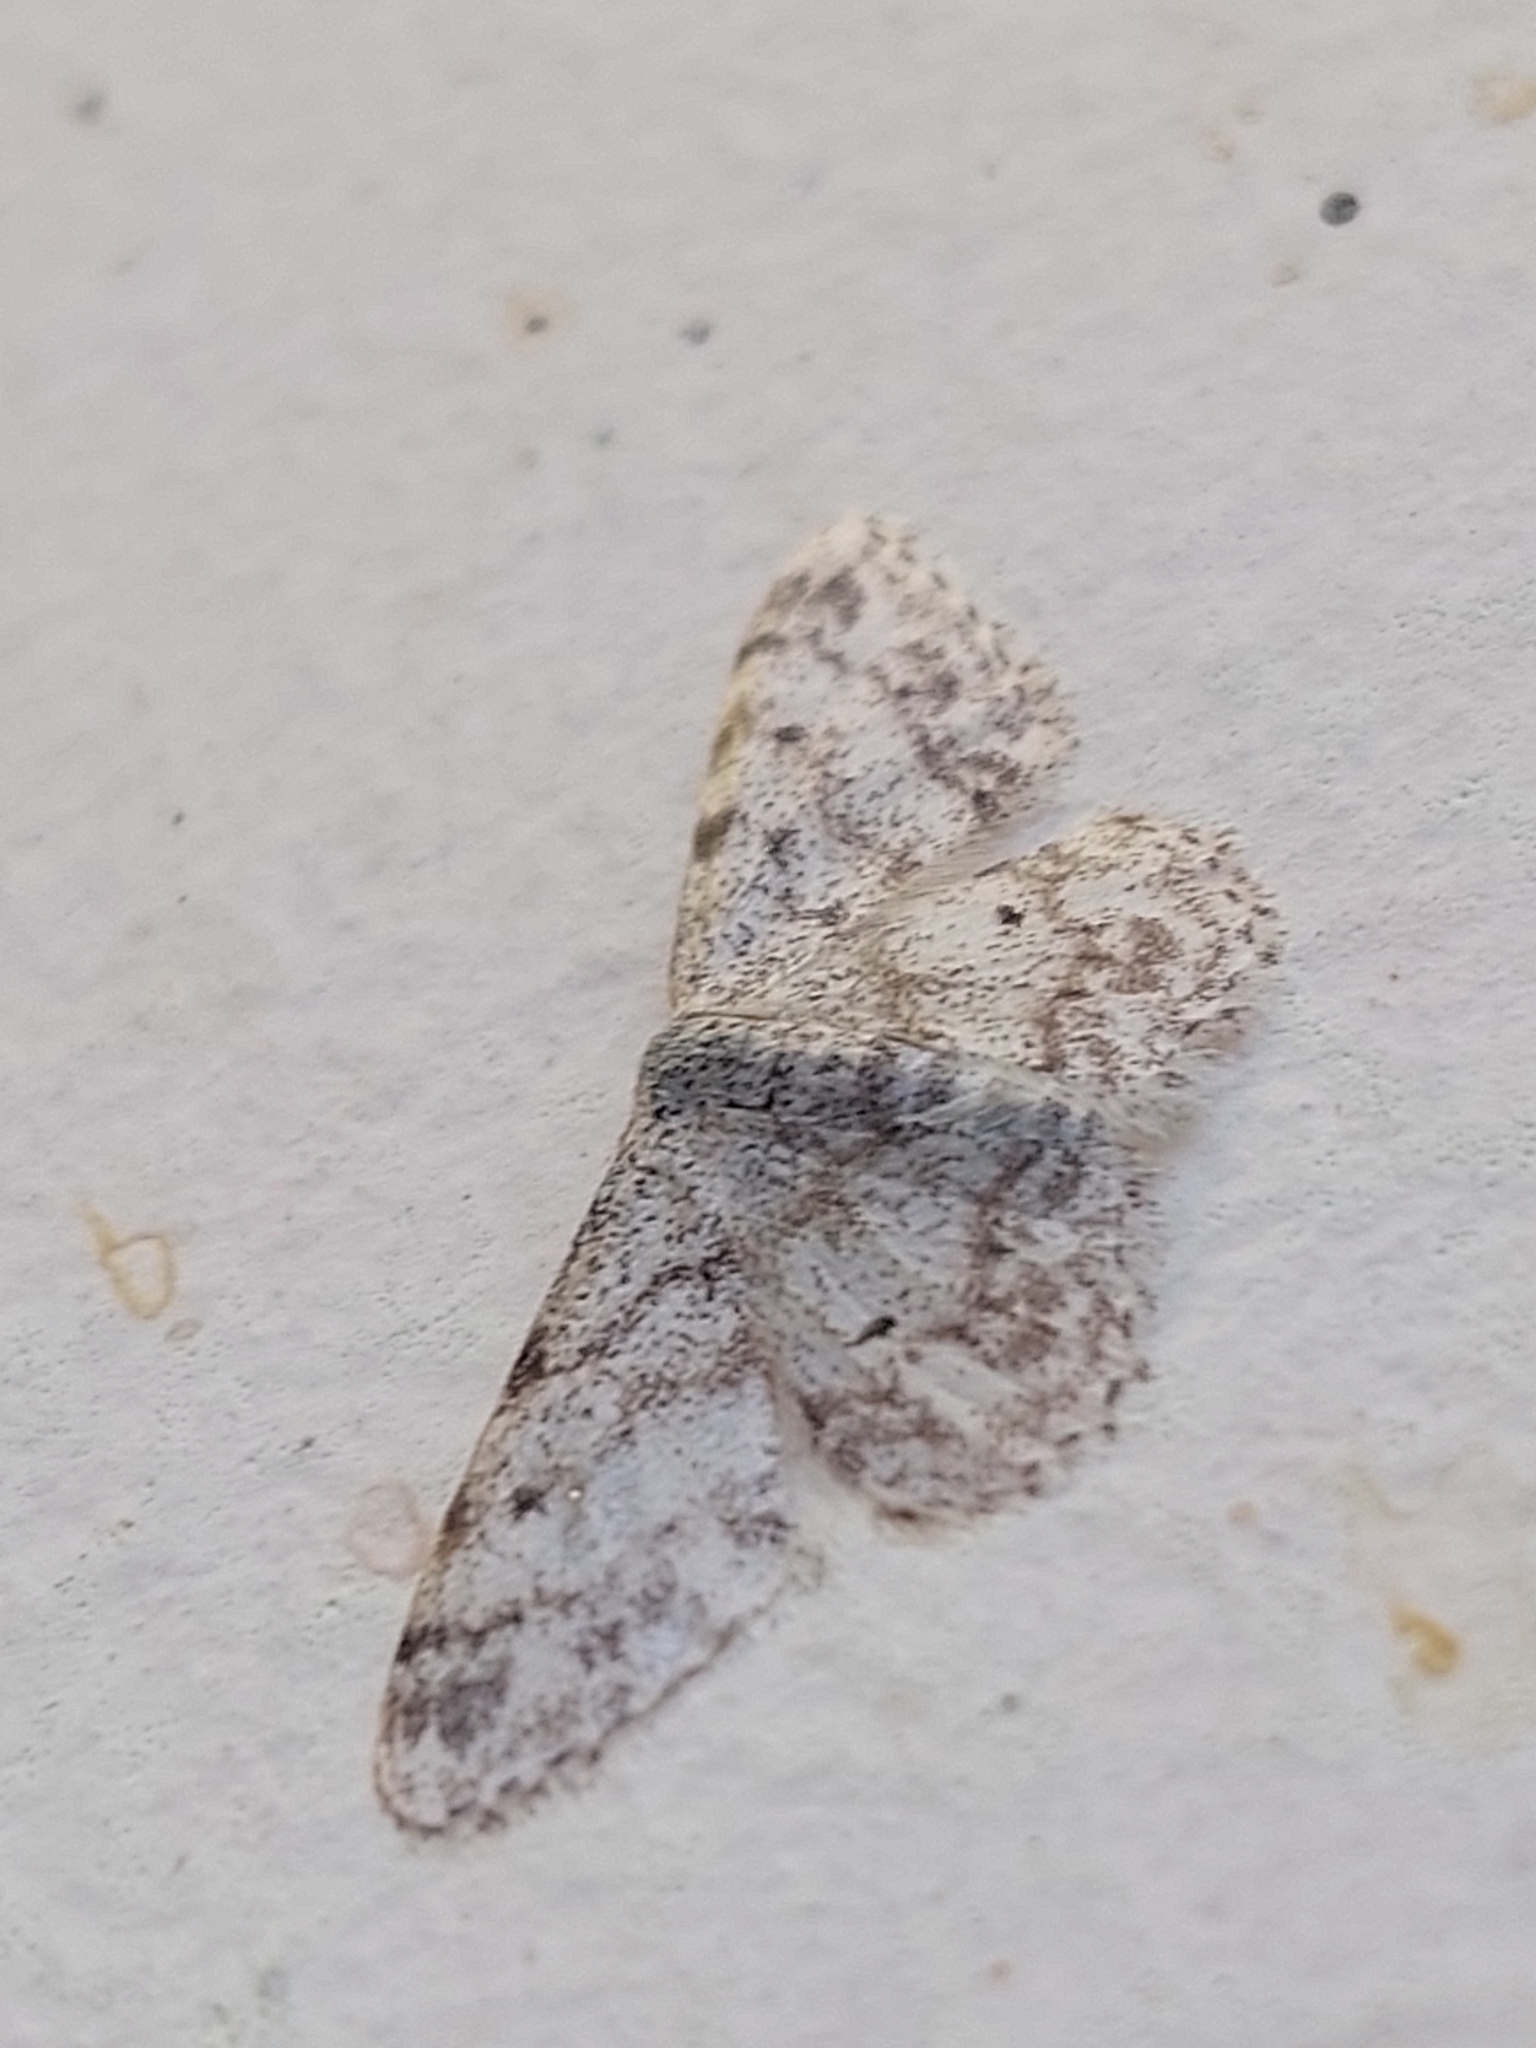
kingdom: Animalia
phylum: Arthropoda
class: Insecta
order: Lepidoptera
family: Geometridae
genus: Idaea
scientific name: Idaea camparia
